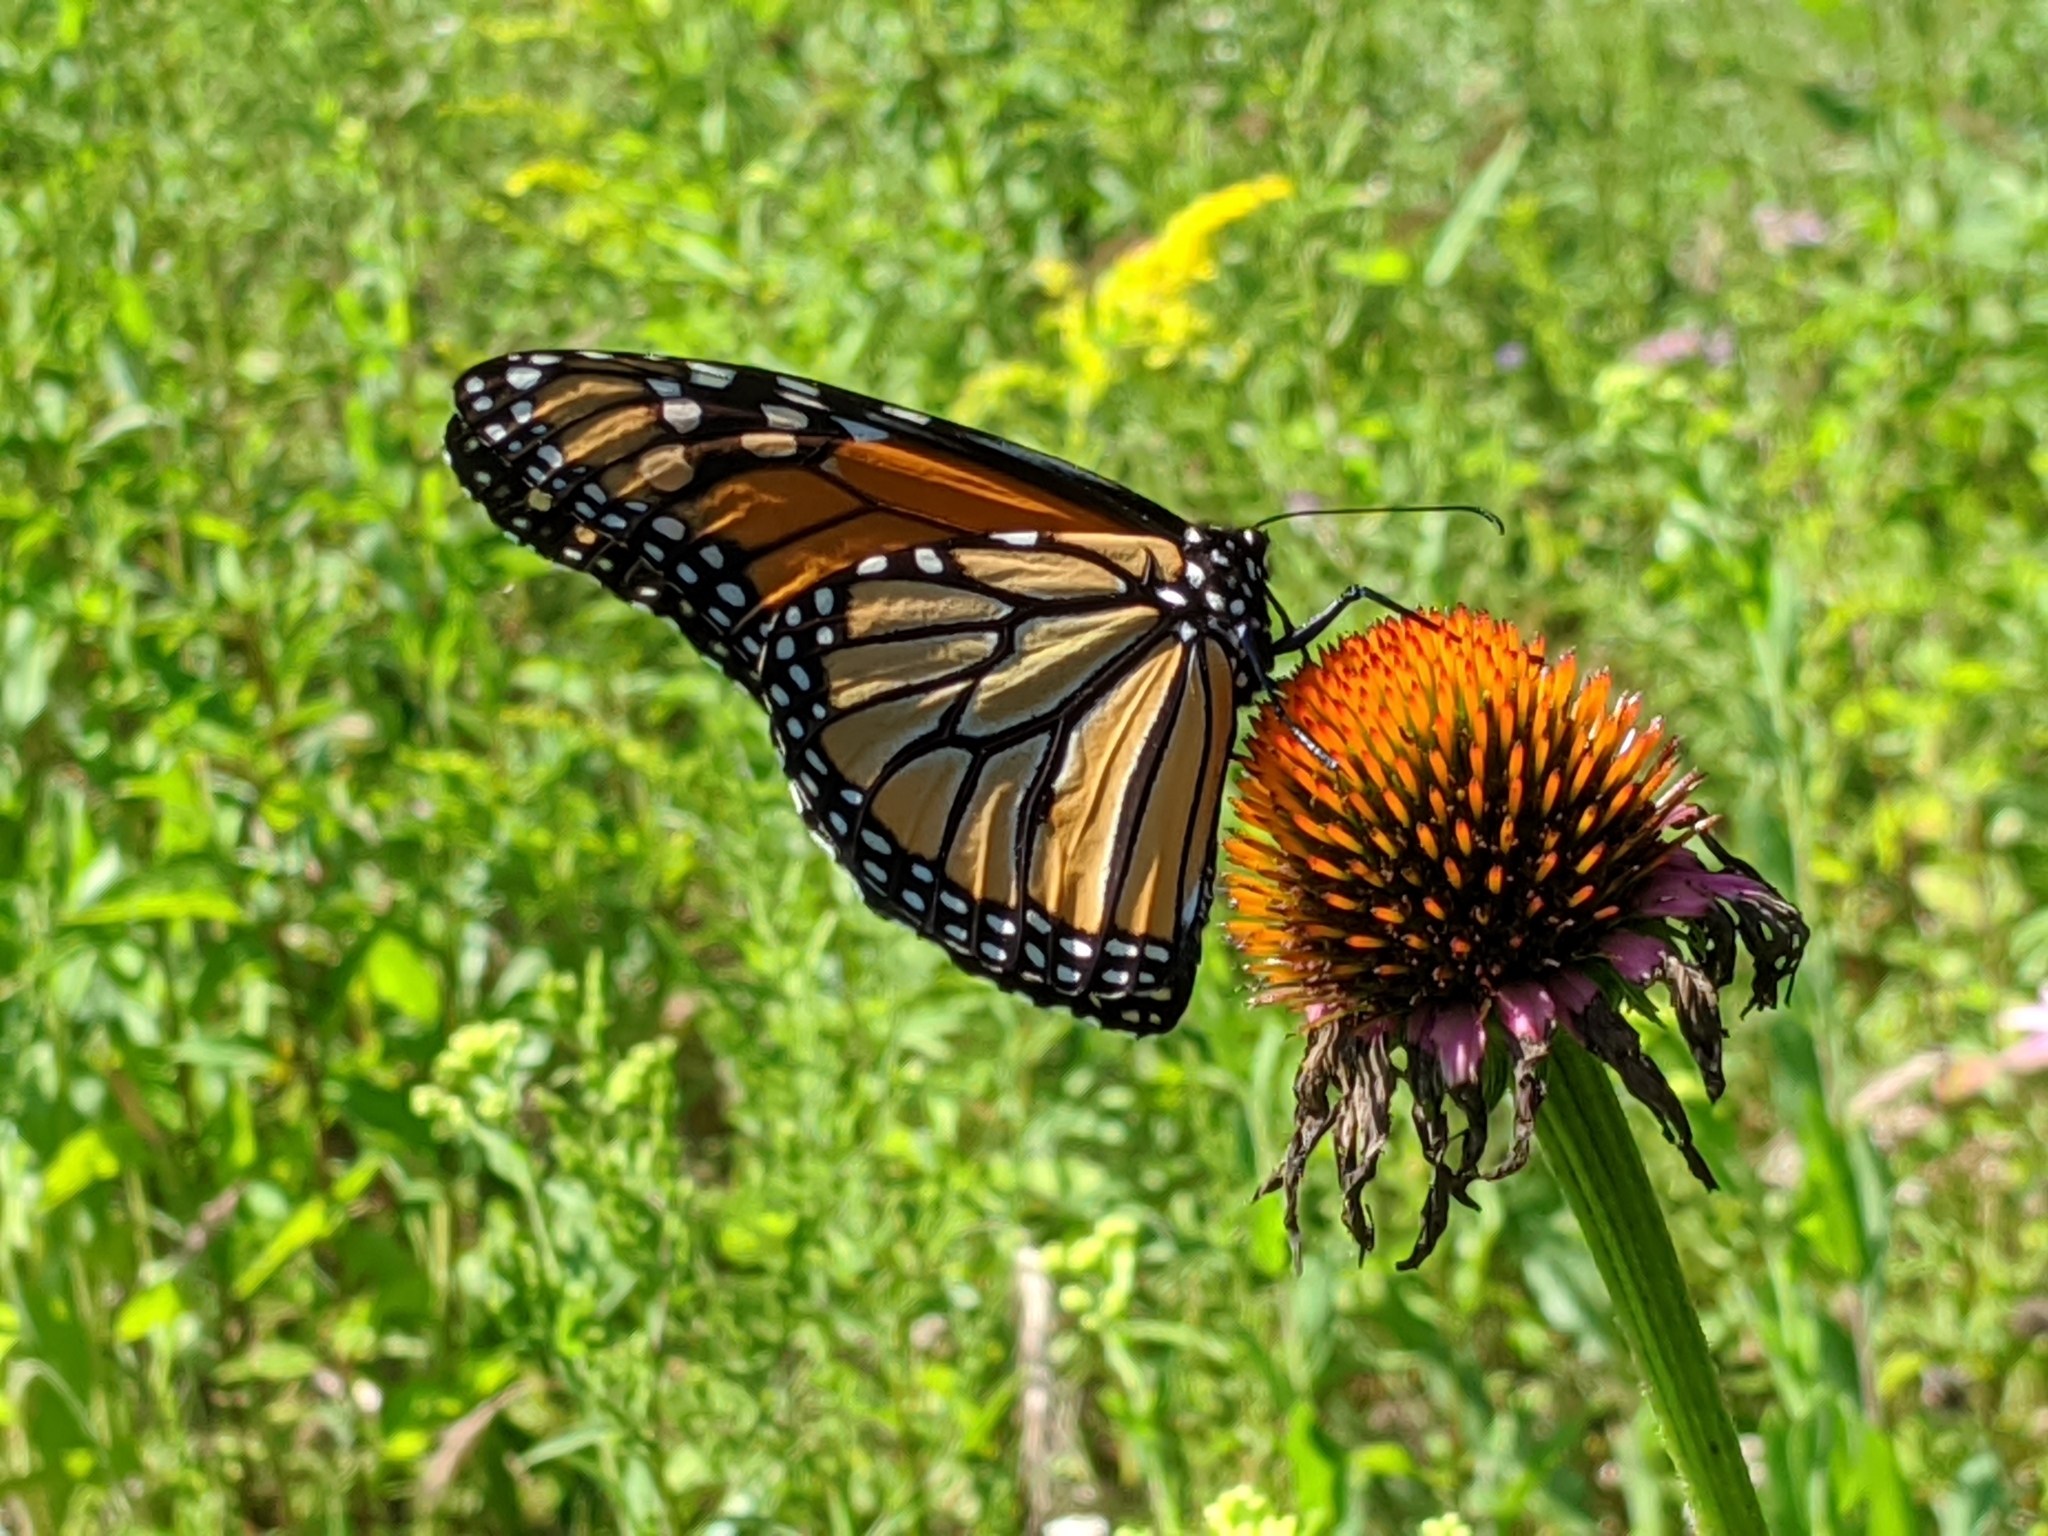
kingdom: Animalia
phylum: Arthropoda
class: Insecta
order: Lepidoptera
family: Nymphalidae
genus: Danaus
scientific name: Danaus plexippus
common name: Monarch
